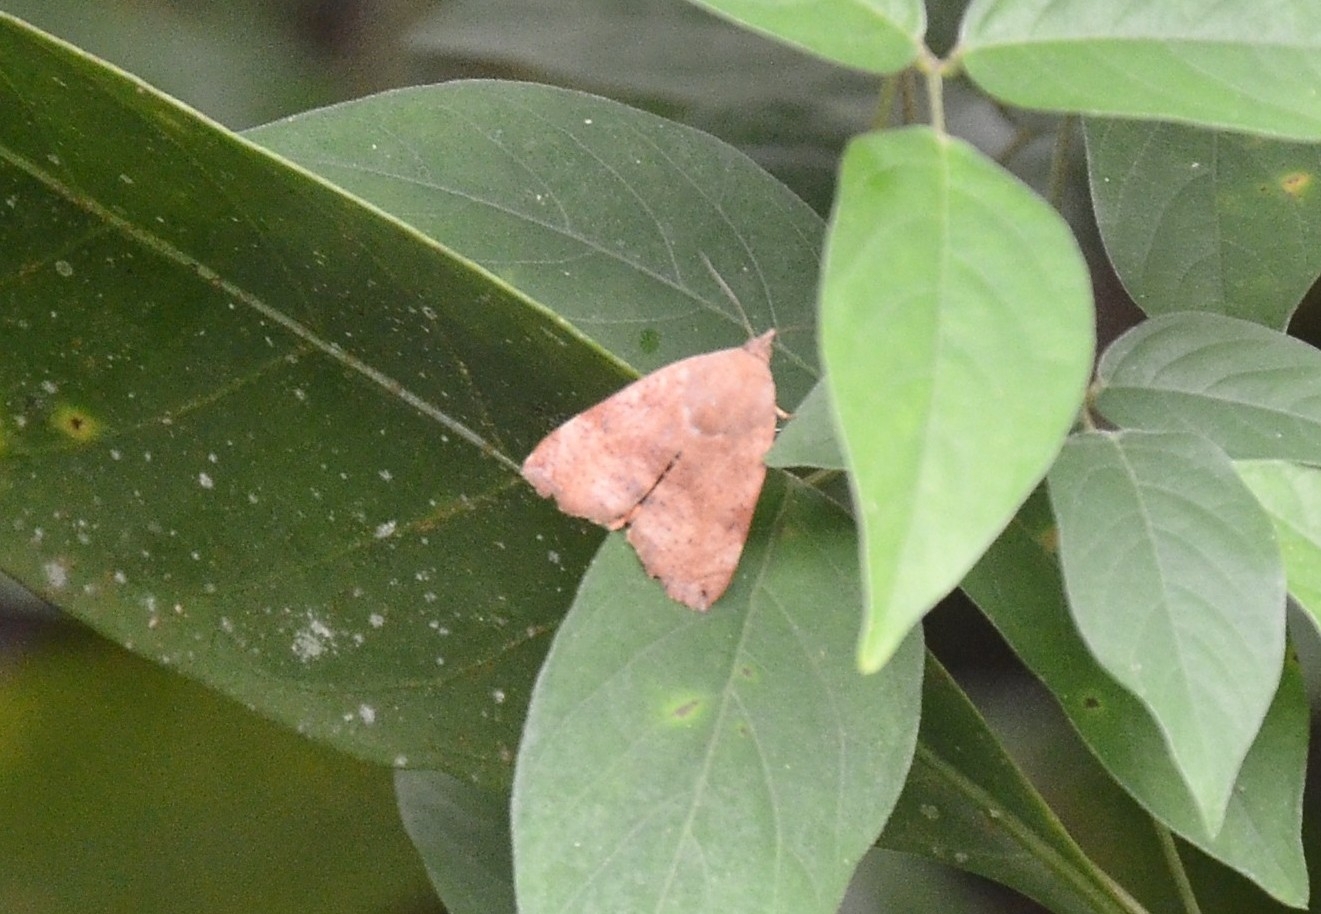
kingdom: Animalia
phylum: Arthropoda
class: Insecta
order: Lepidoptera
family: Hyblaeidae
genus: Hyblaea
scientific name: Hyblaea puera
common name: Teak defoliator moth
